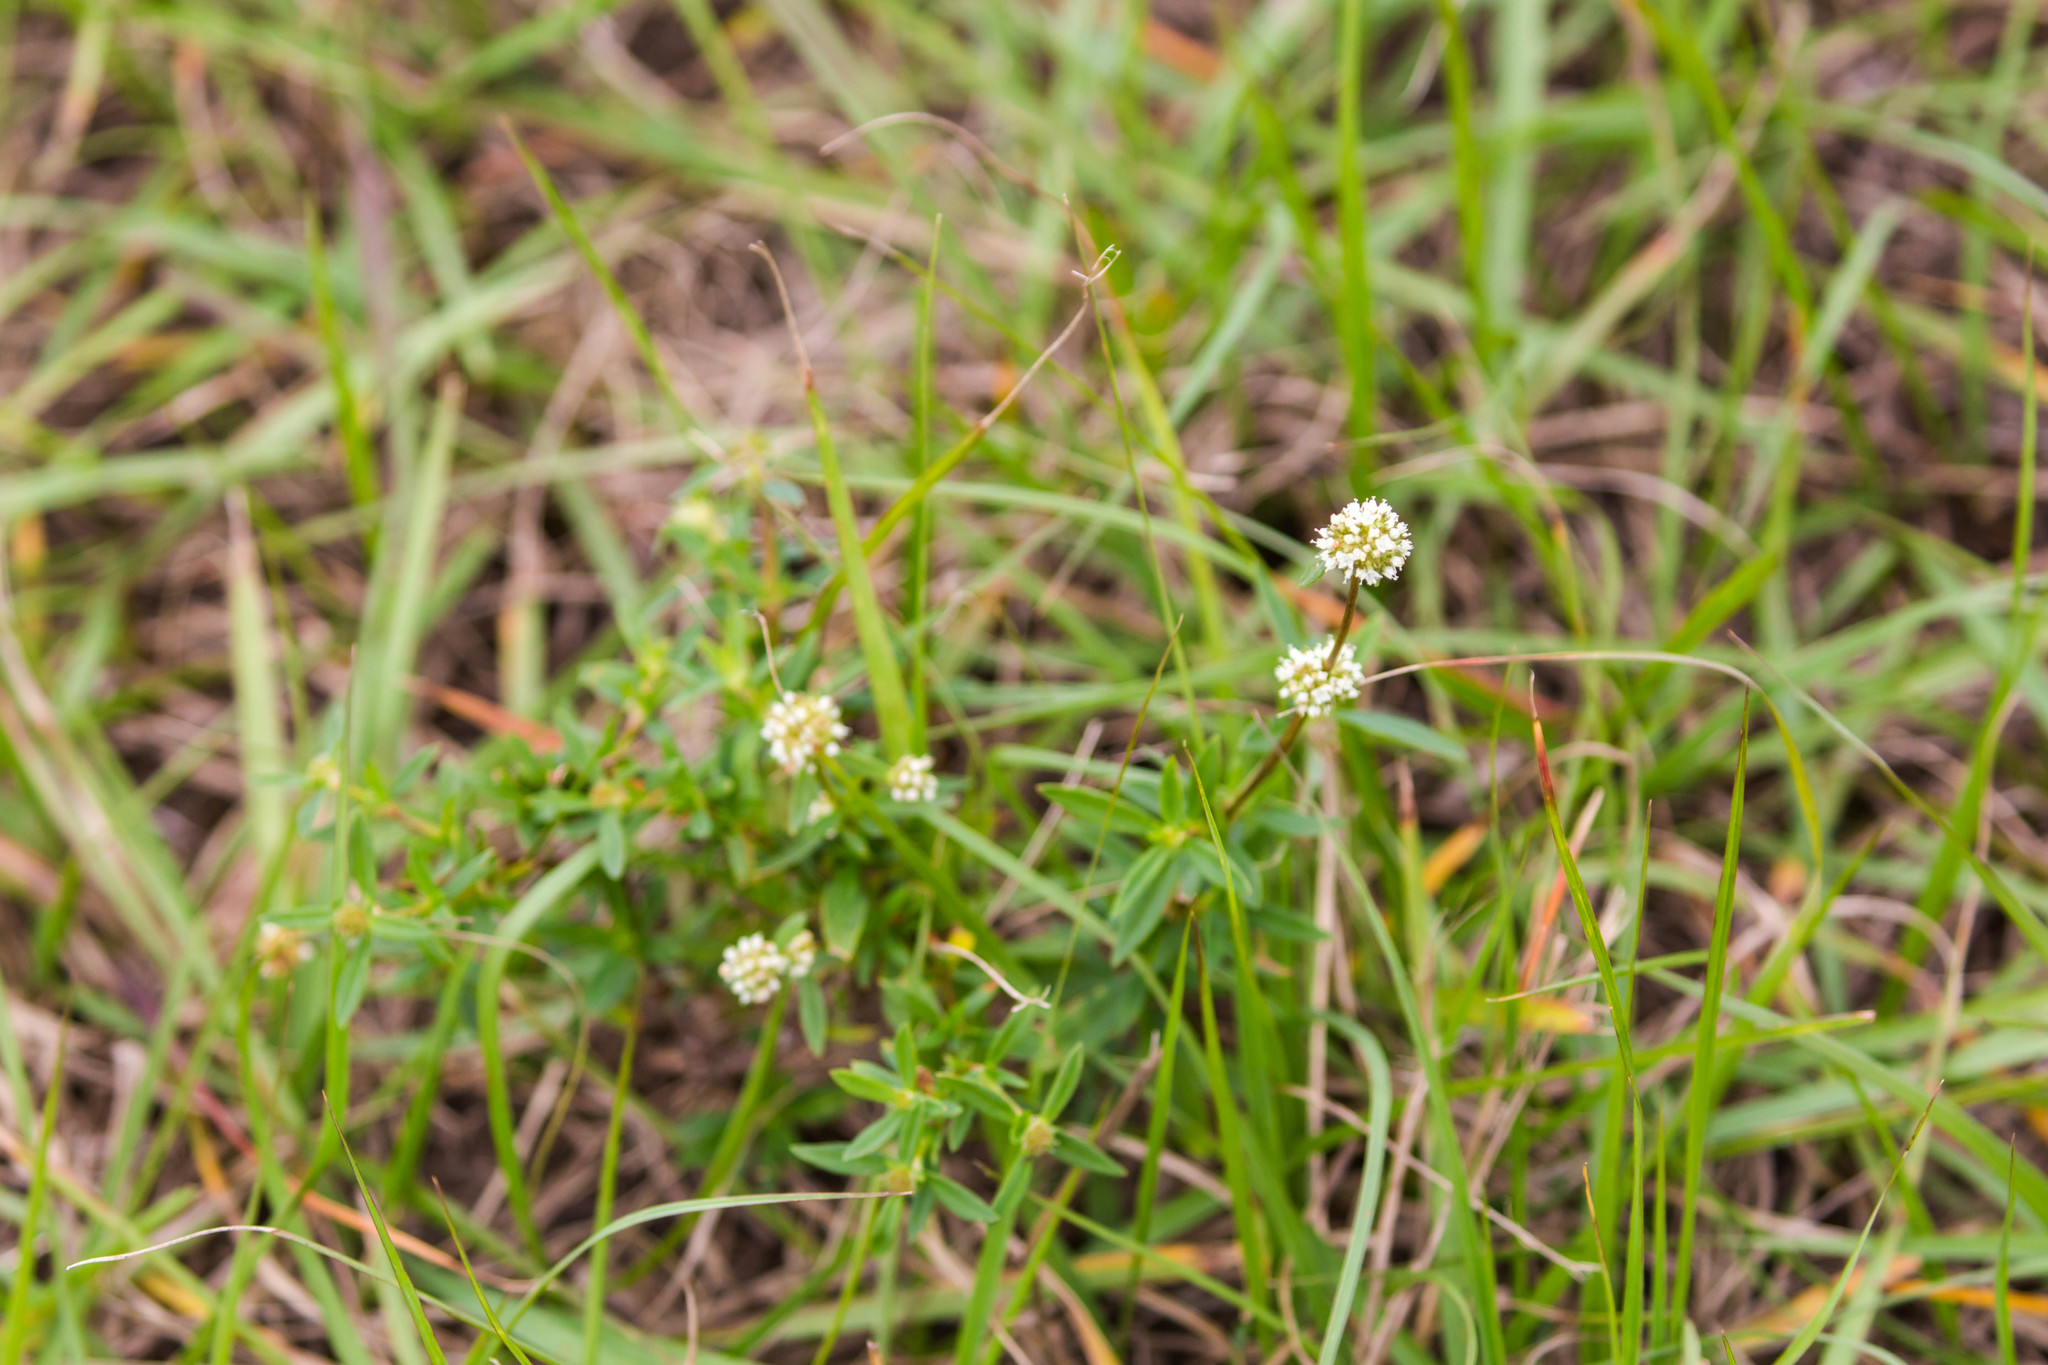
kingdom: Plantae
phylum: Tracheophyta
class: Magnoliopsida
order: Gentianales
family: Rubiaceae
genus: Spermacoce
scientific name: Spermacoce verticillata
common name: Shrubby false buttonweed
